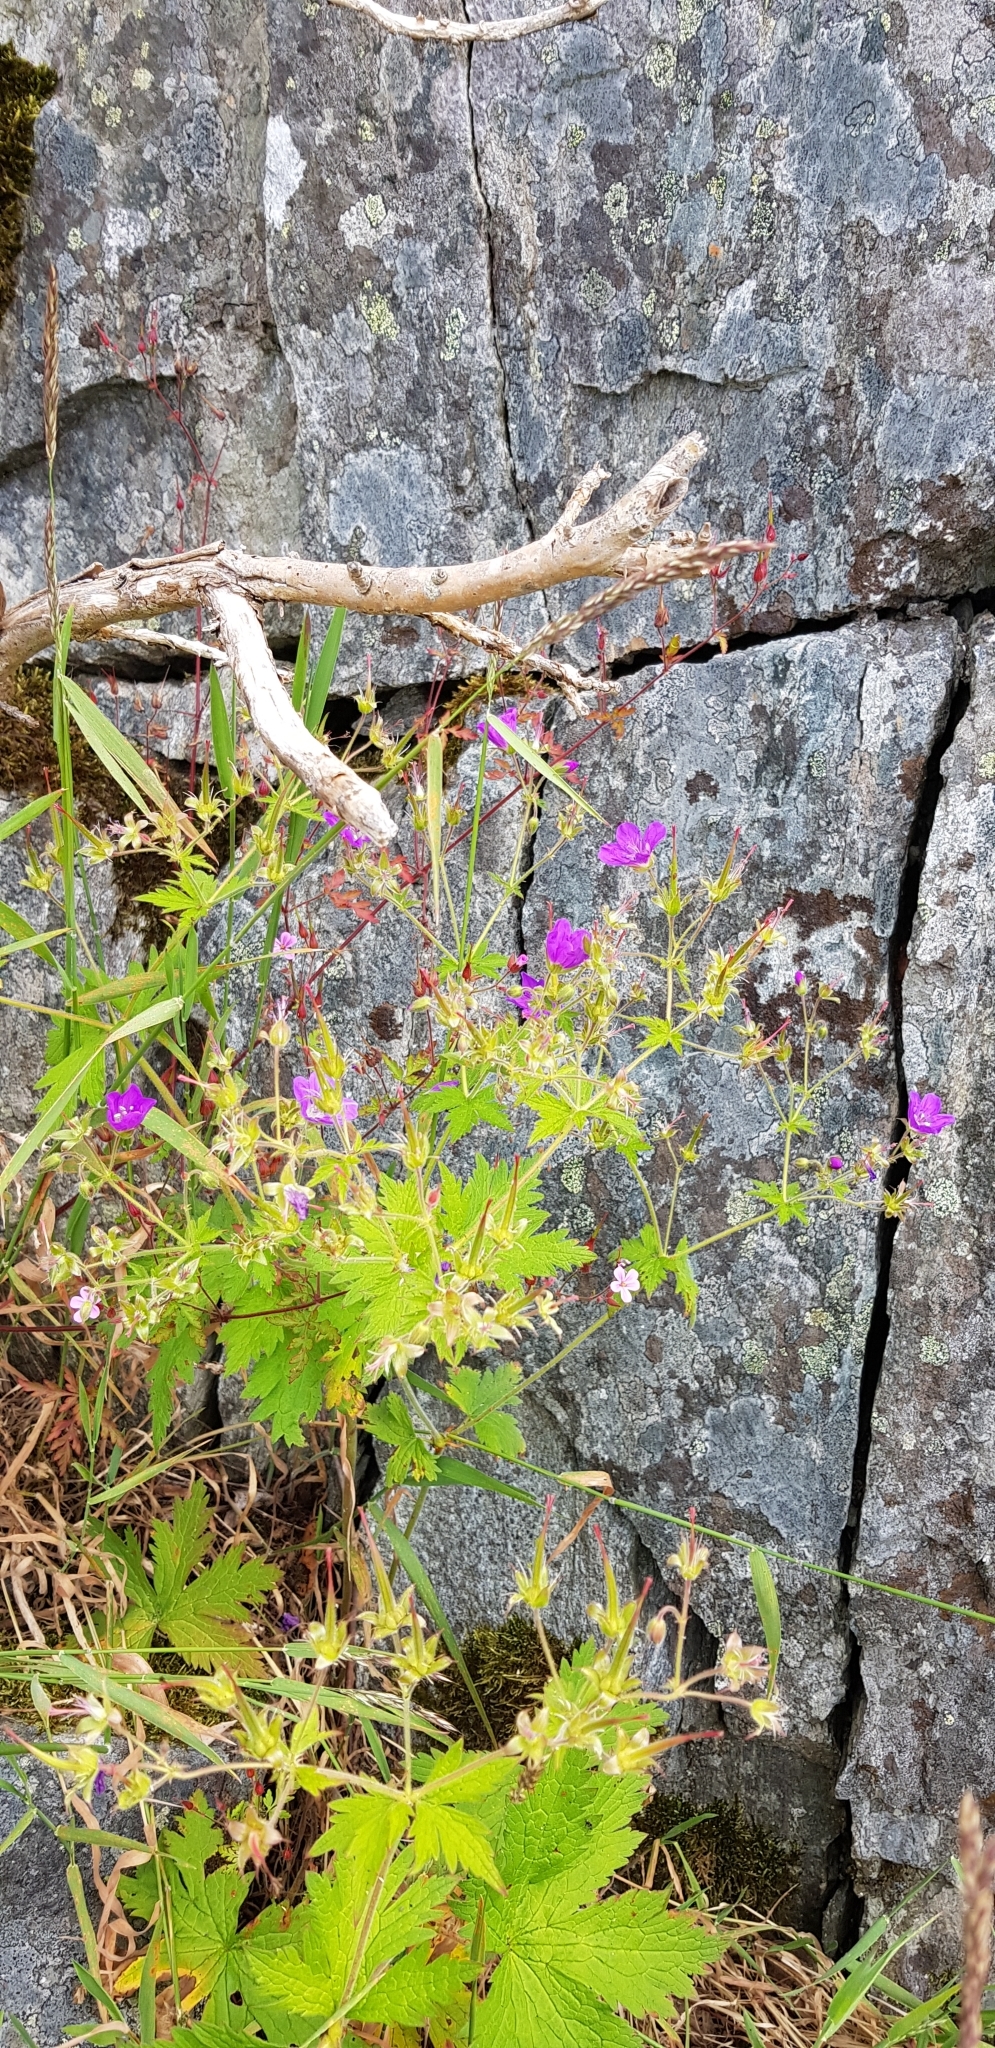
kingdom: Plantae
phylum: Tracheophyta
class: Magnoliopsida
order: Geraniales
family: Geraniaceae
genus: Geranium
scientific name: Geranium sylvaticum
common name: Wood crane's-bill
